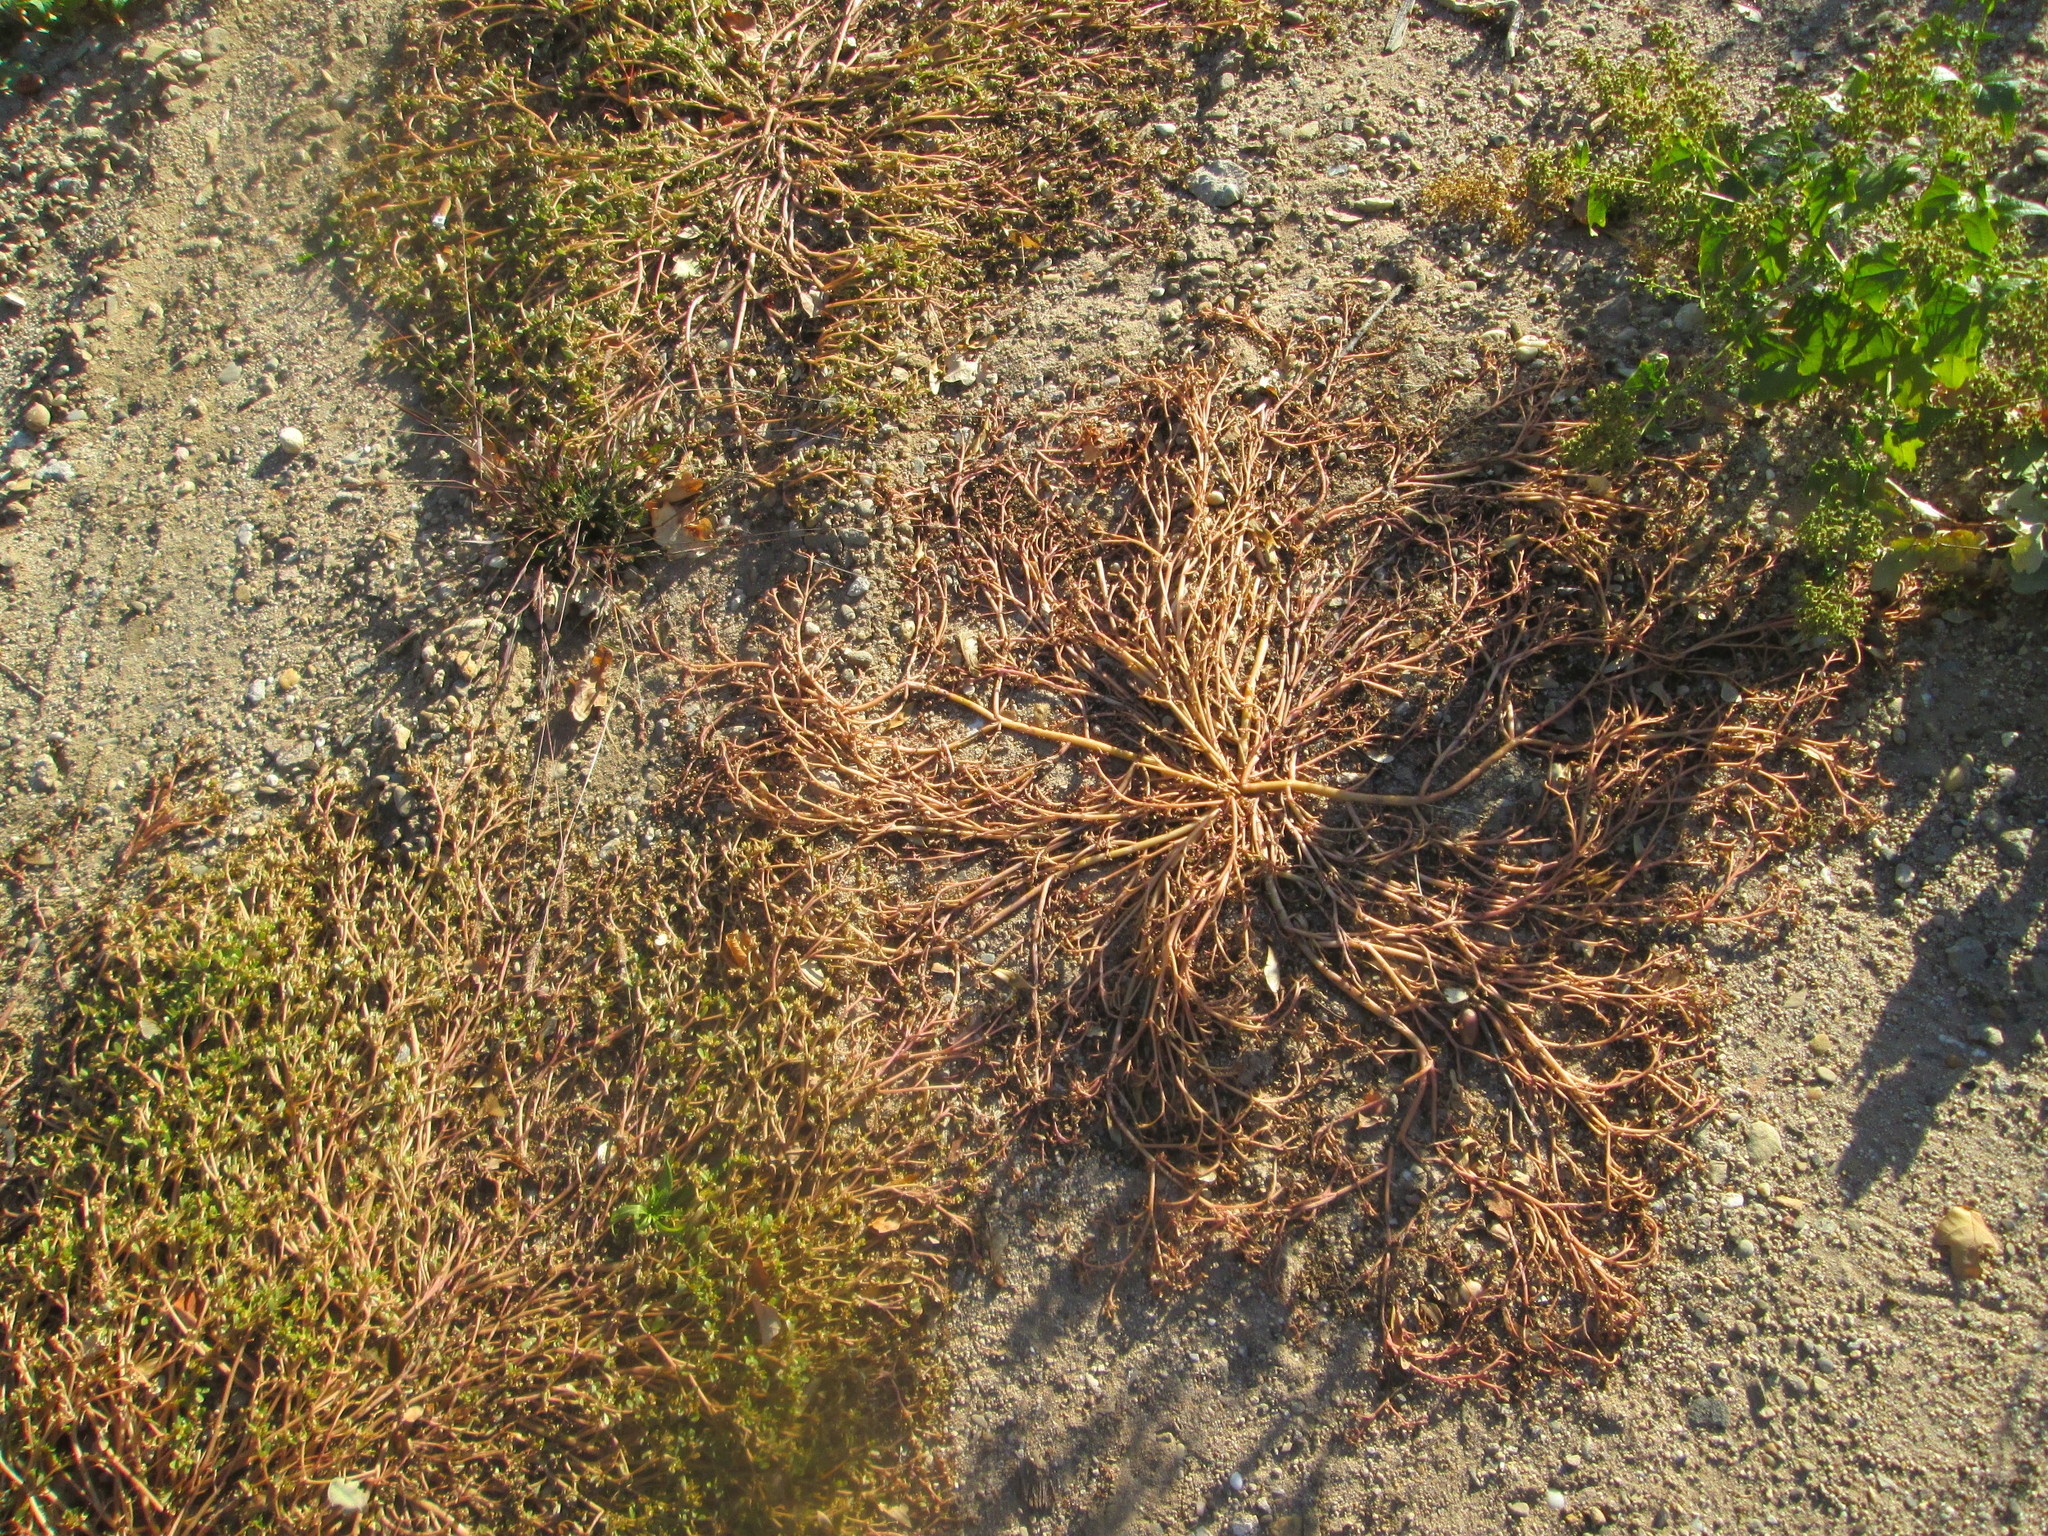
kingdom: Plantae
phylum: Tracheophyta
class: Magnoliopsida
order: Caryophyllales
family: Portulacaceae
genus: Portulaca
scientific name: Portulaca oleracea
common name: Common purslane
